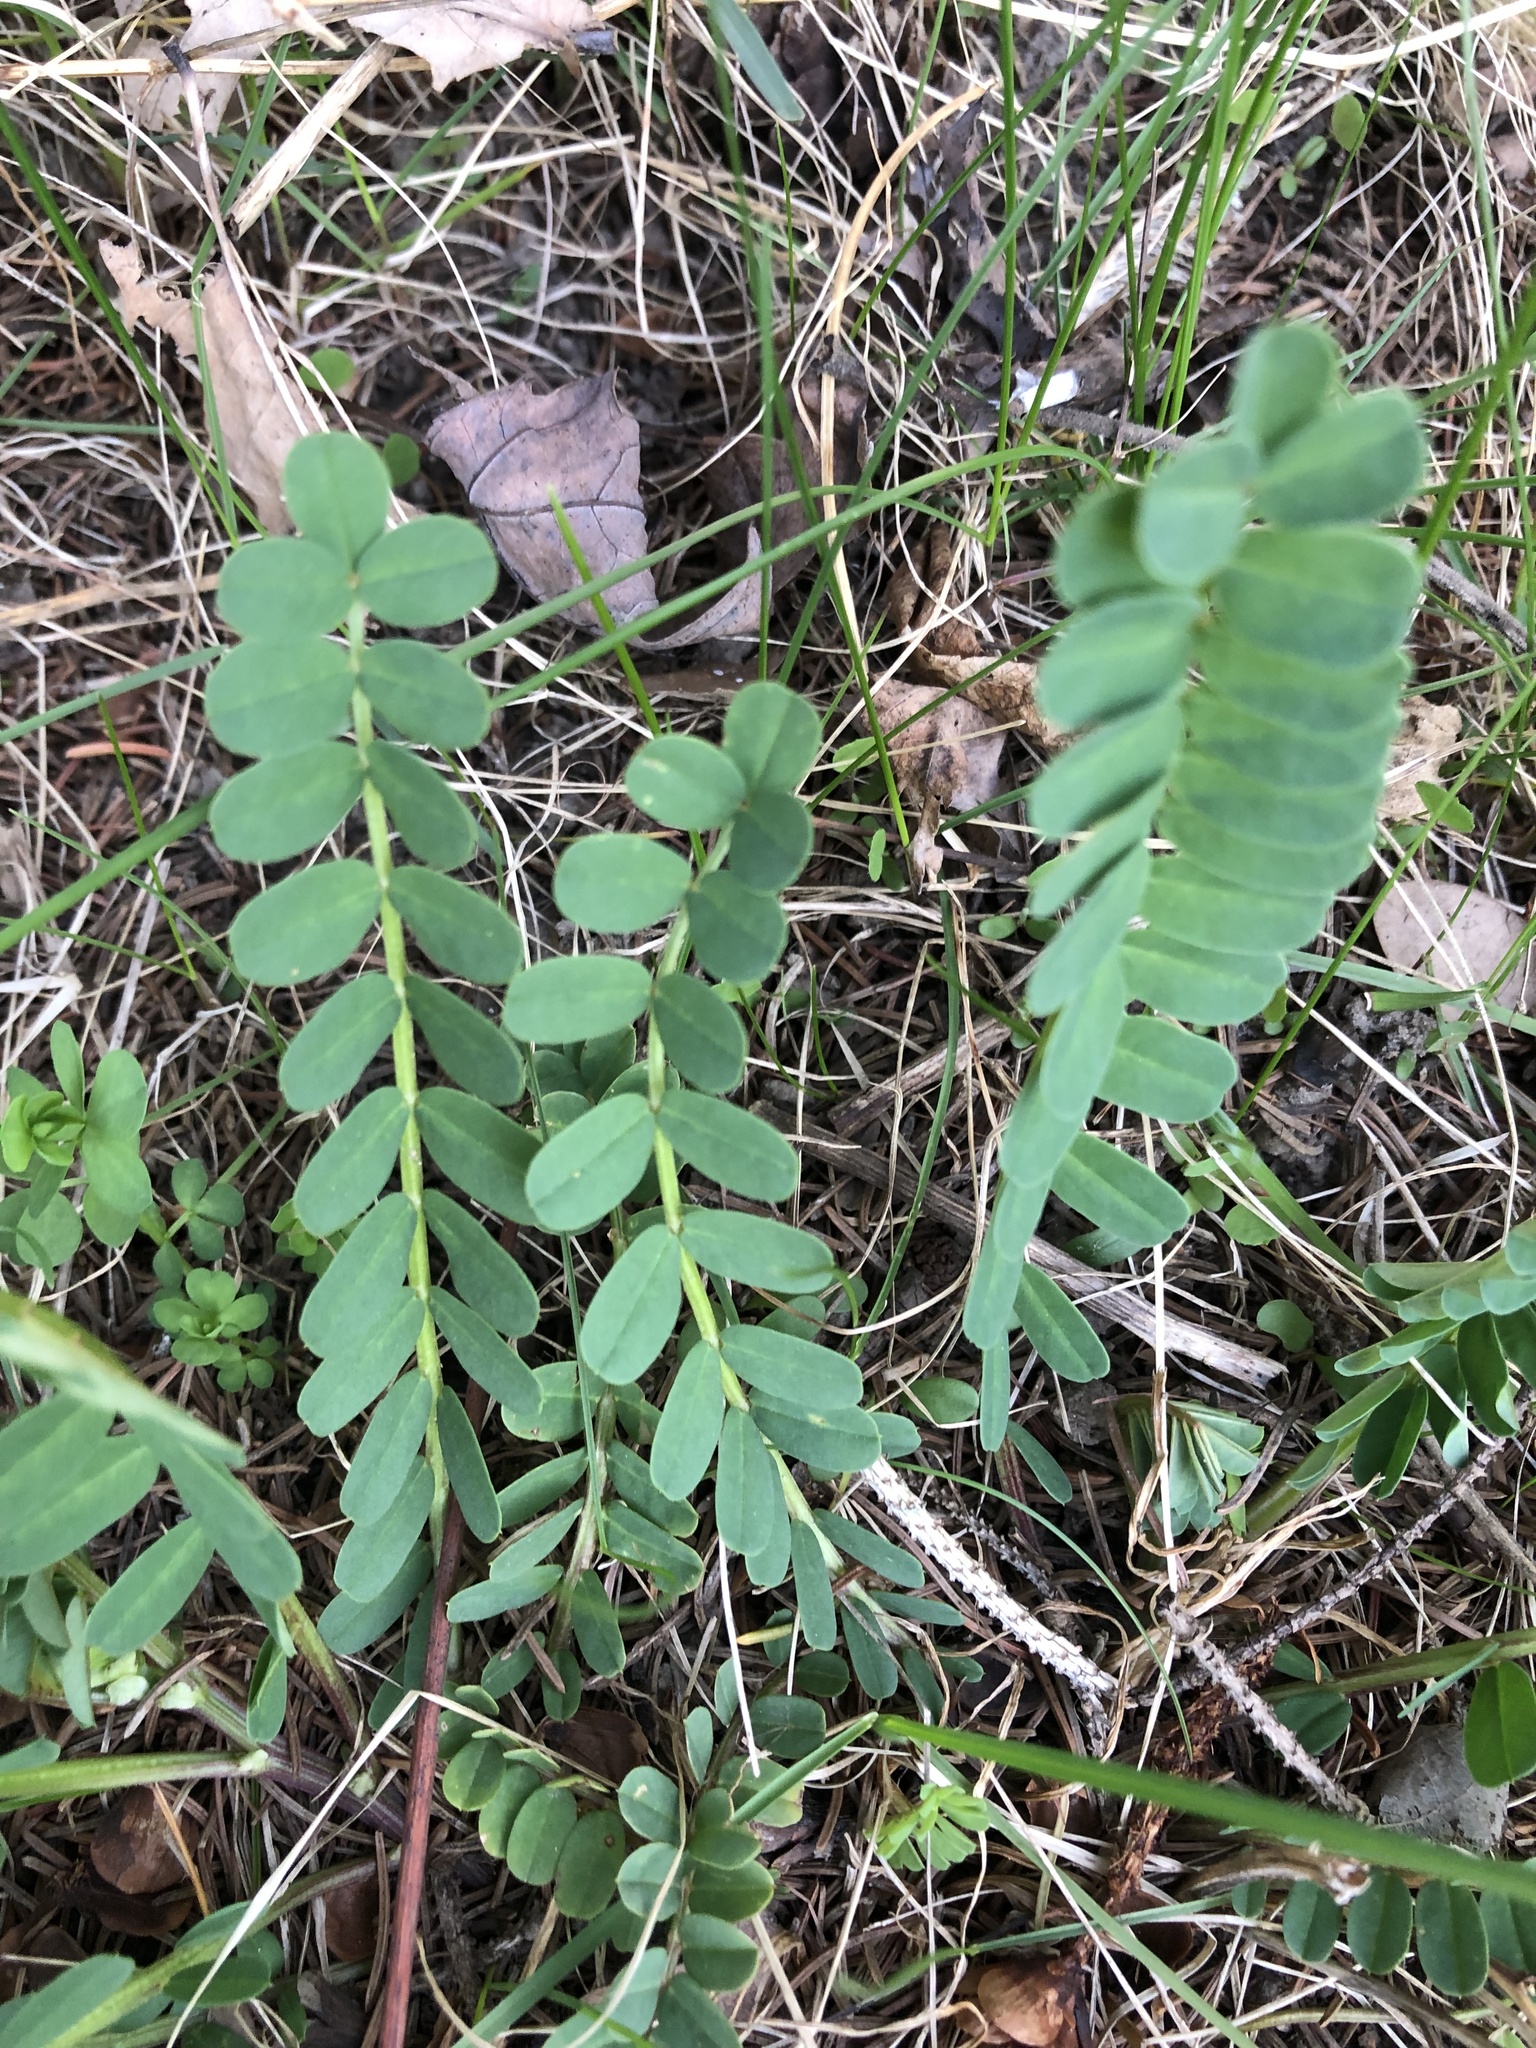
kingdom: Plantae
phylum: Tracheophyta
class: Magnoliopsida
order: Fabales
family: Fabaceae
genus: Coronilla
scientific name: Coronilla varia
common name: Crownvetch
